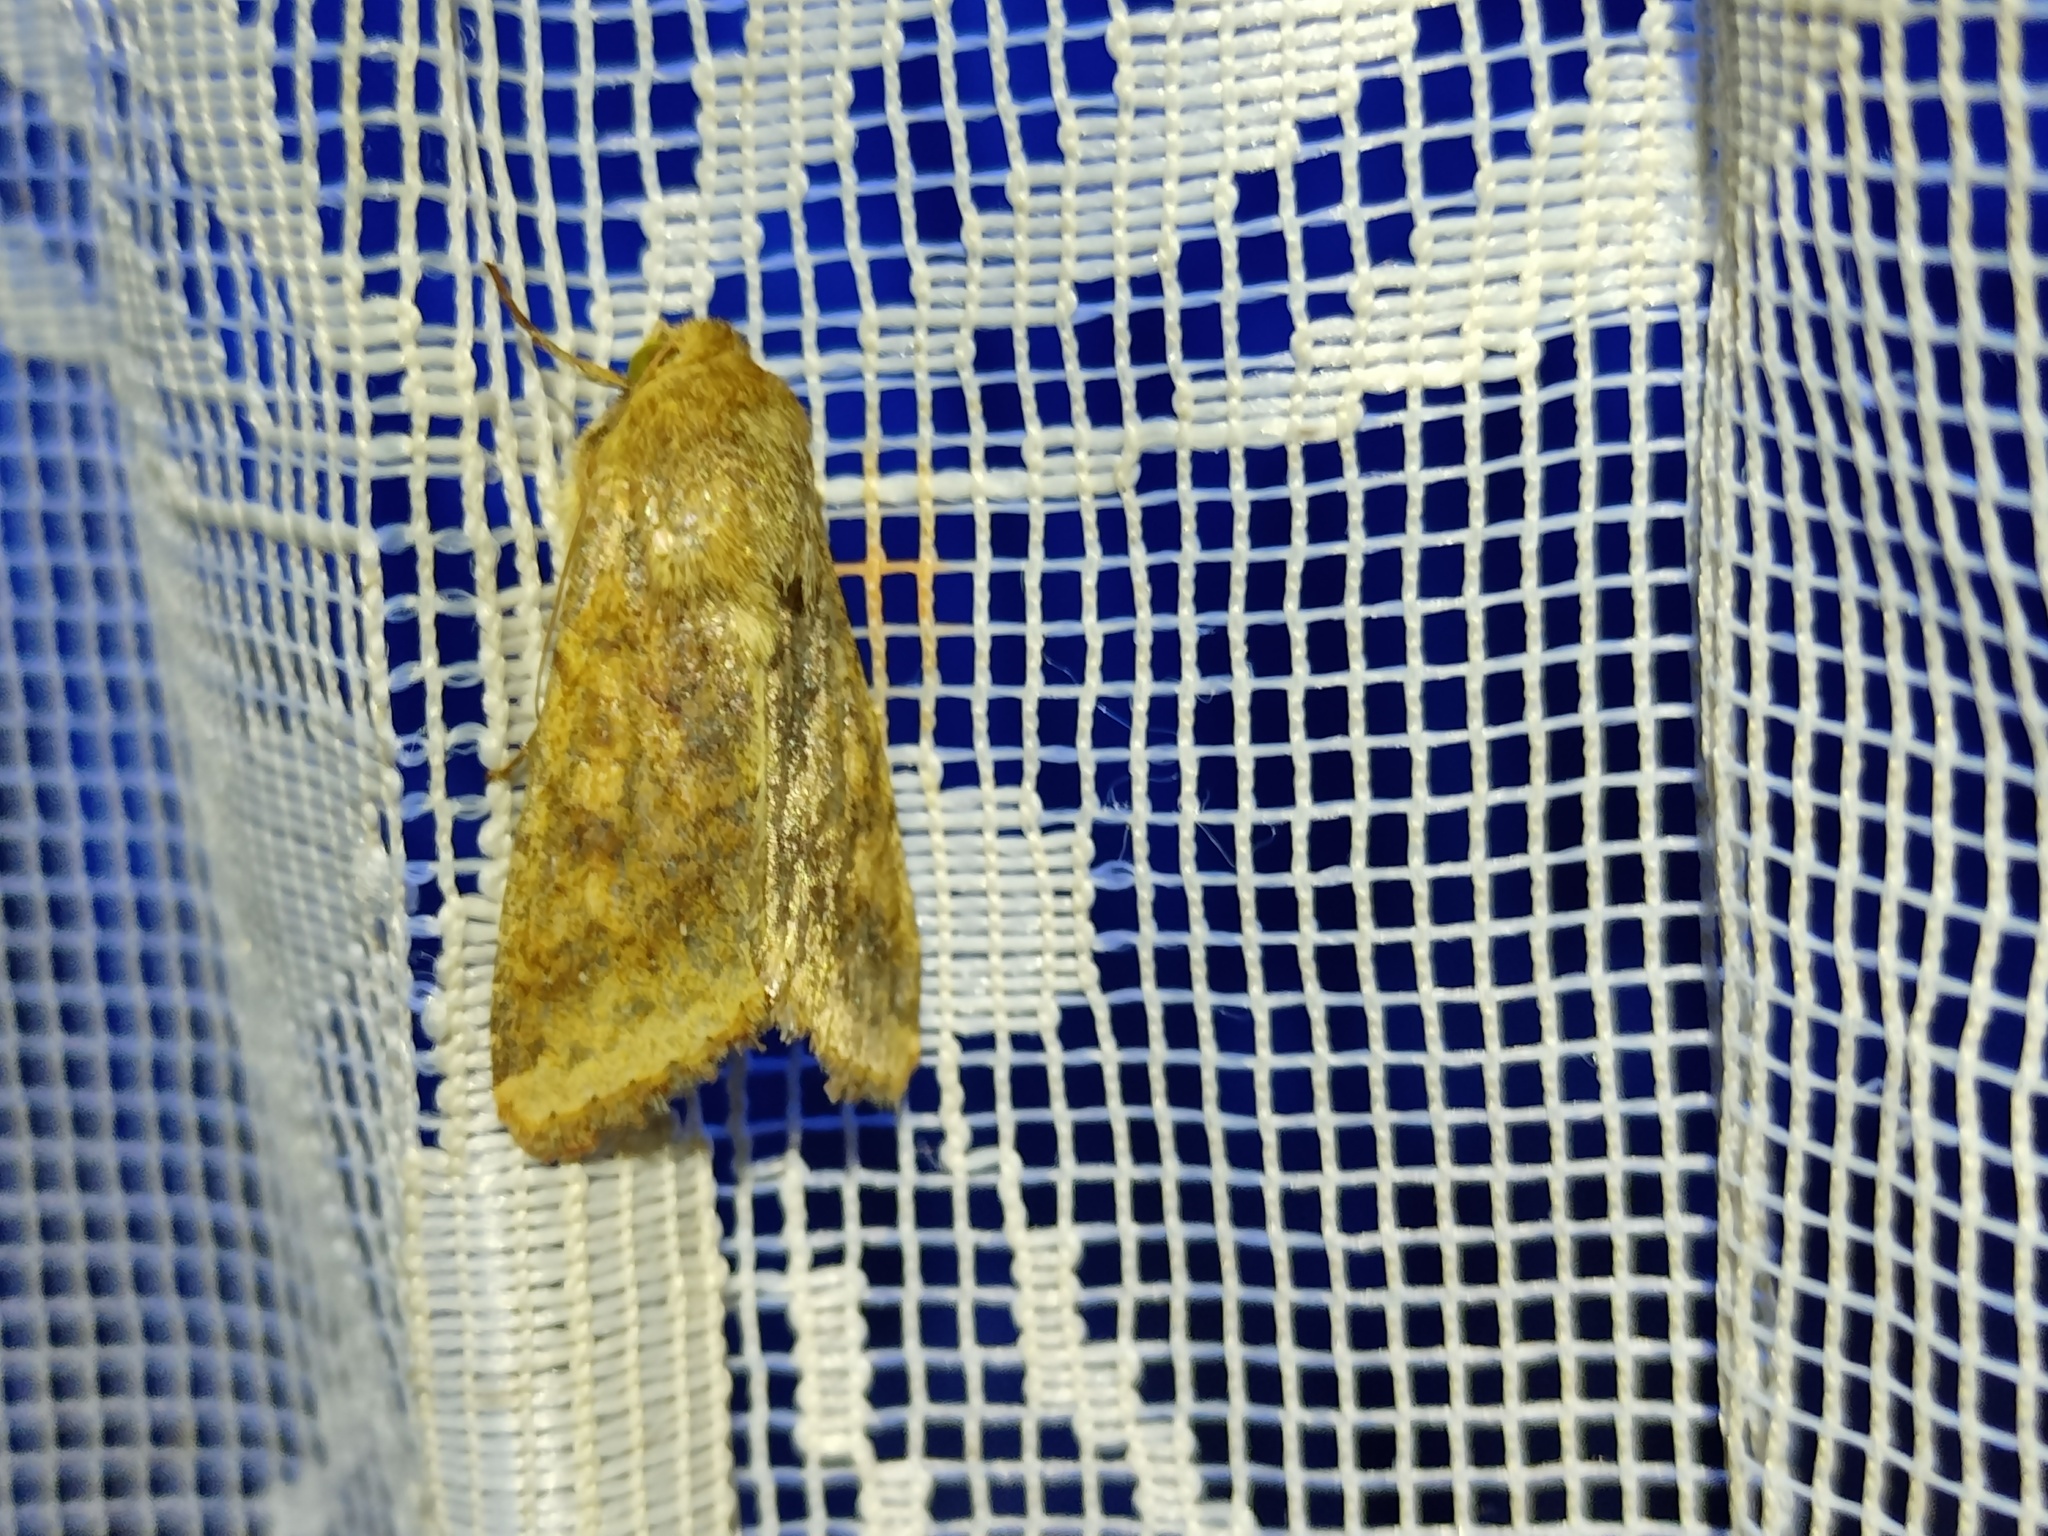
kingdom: Animalia
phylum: Arthropoda
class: Insecta
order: Lepidoptera
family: Noctuidae
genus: Helicoverpa
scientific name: Helicoverpa armigera
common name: Cotton bollworm
